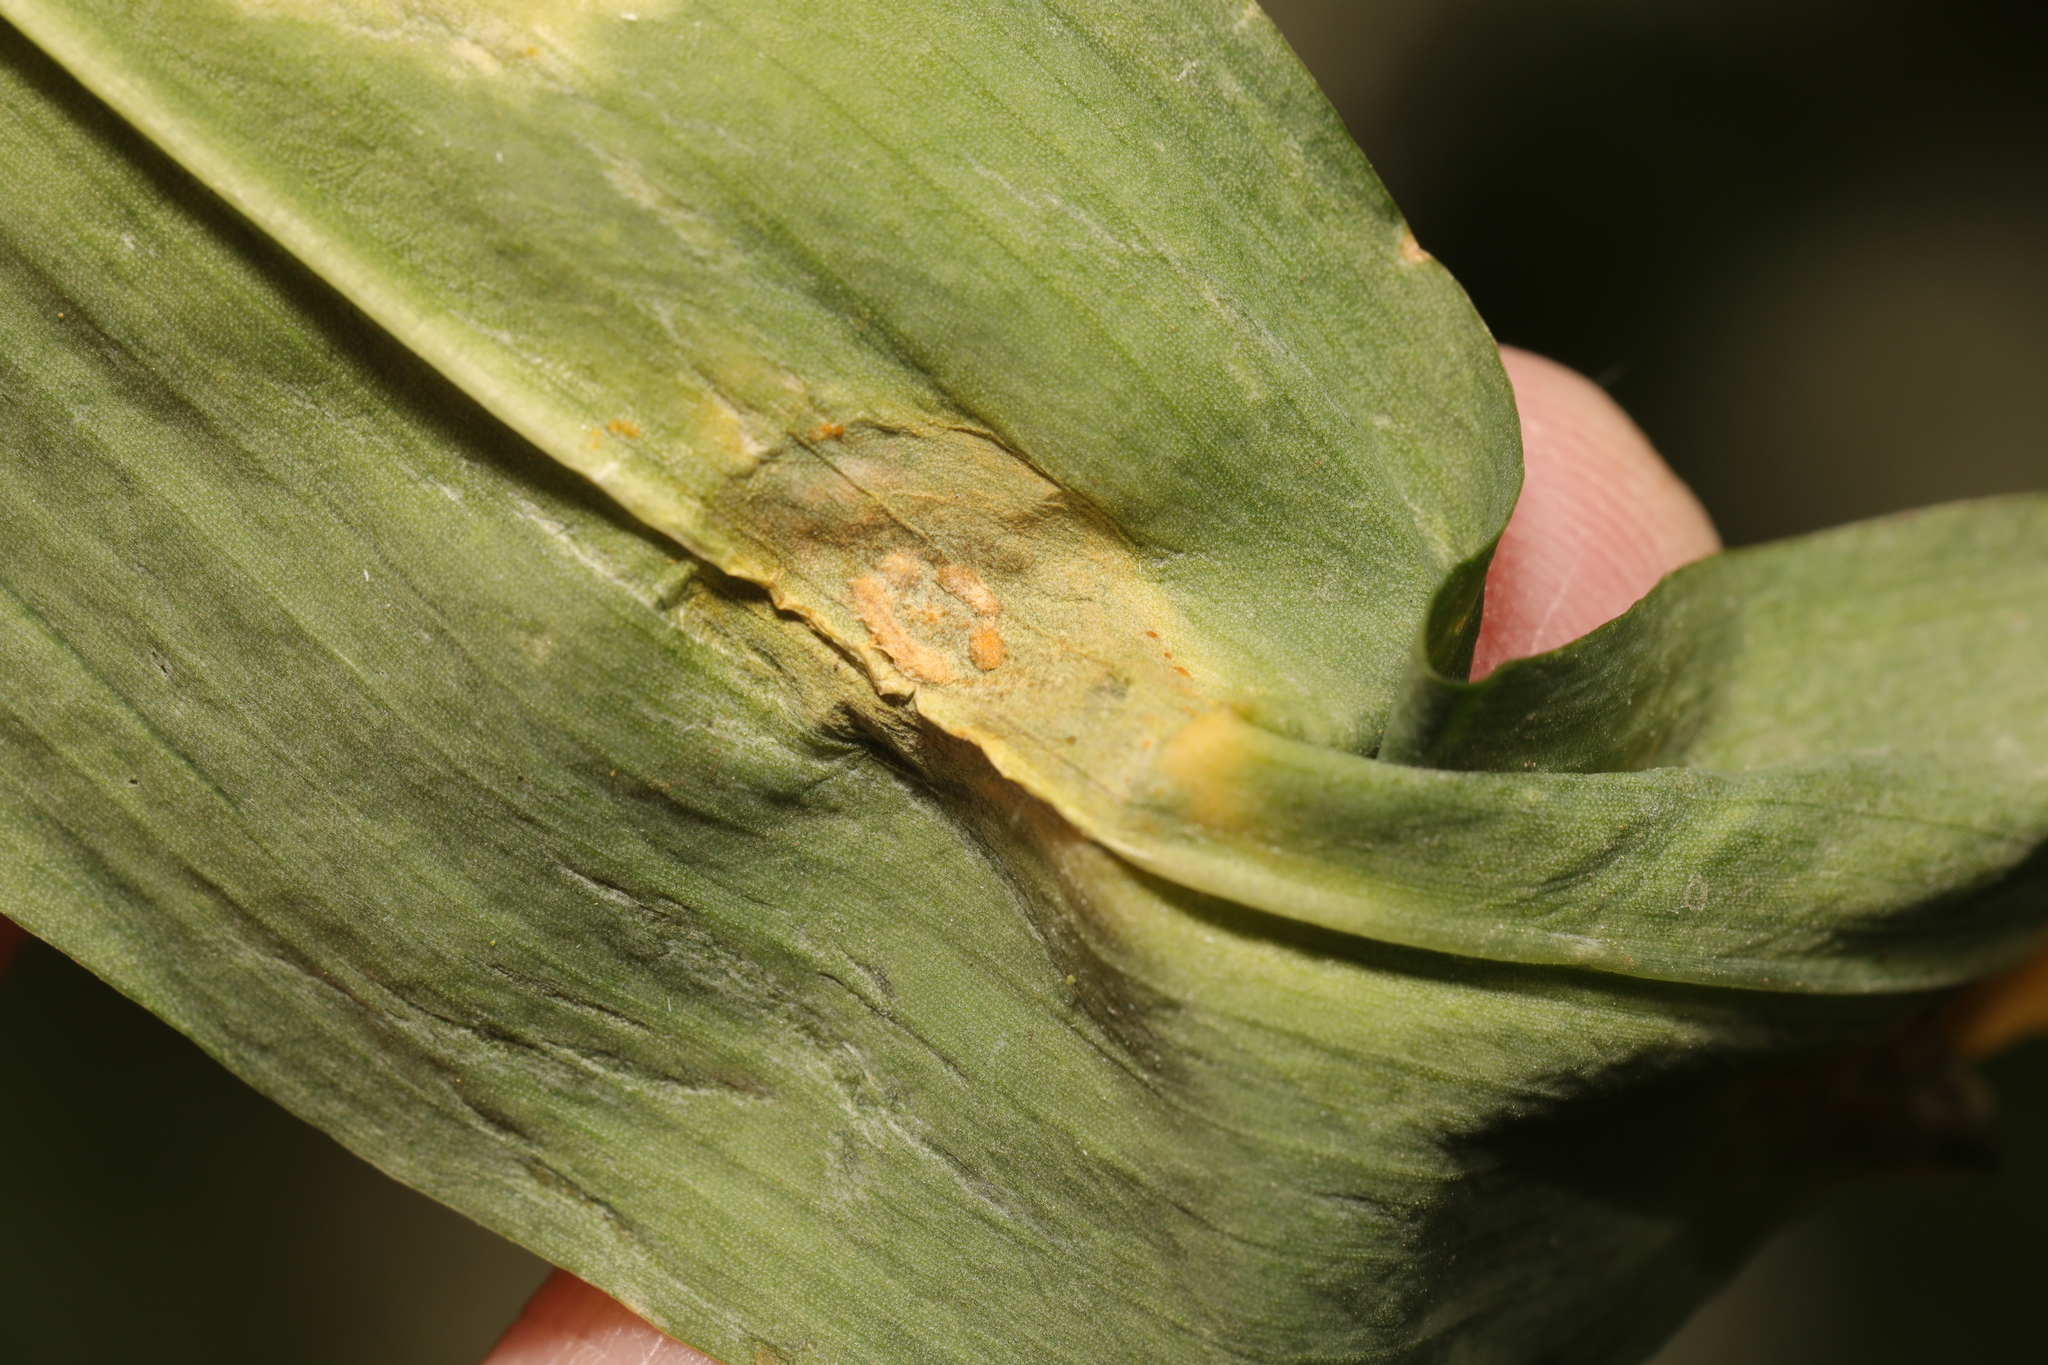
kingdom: Fungi
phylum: Basidiomycota
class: Pucciniomycetes
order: Pucciniales
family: Pucciniaceae
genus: Caeoma
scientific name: Caeoma allii-ursini
